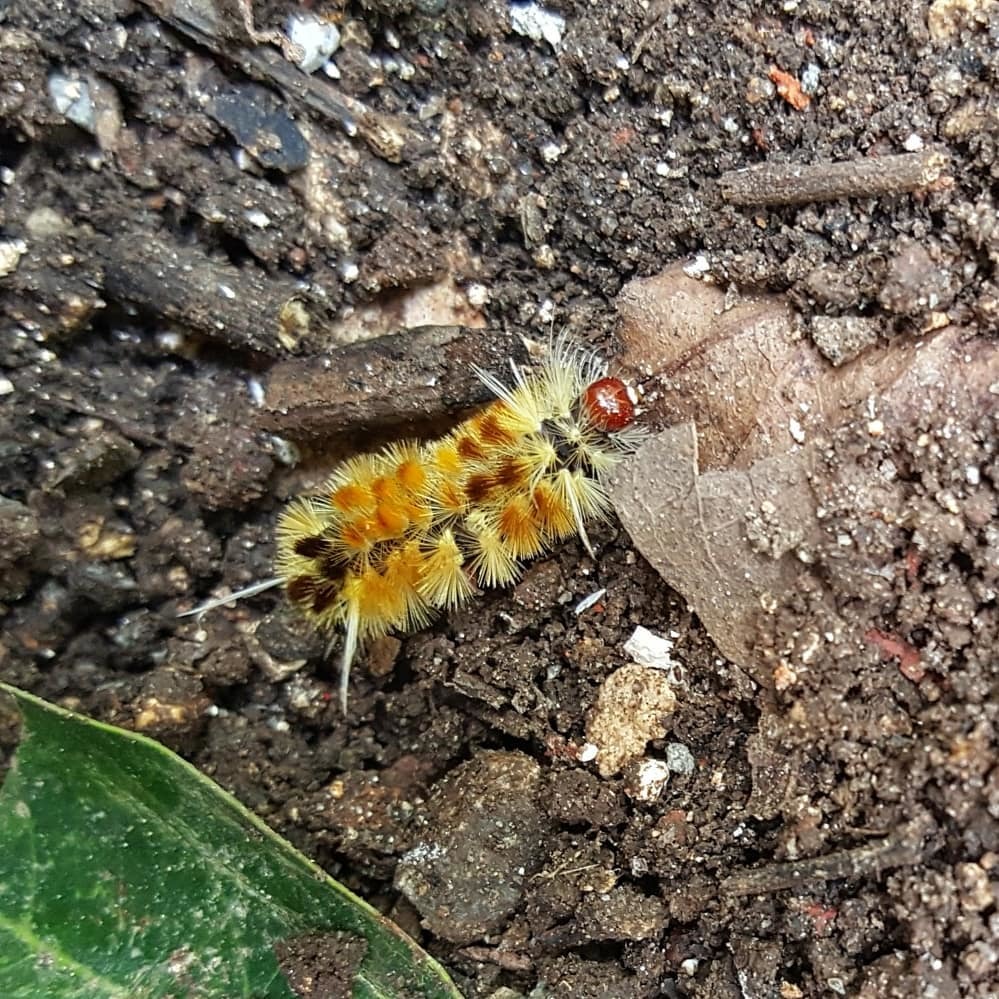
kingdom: Animalia
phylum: Arthropoda
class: Insecta
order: Lepidoptera
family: Erebidae
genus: Lophocampa
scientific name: Lophocampa annulosa
